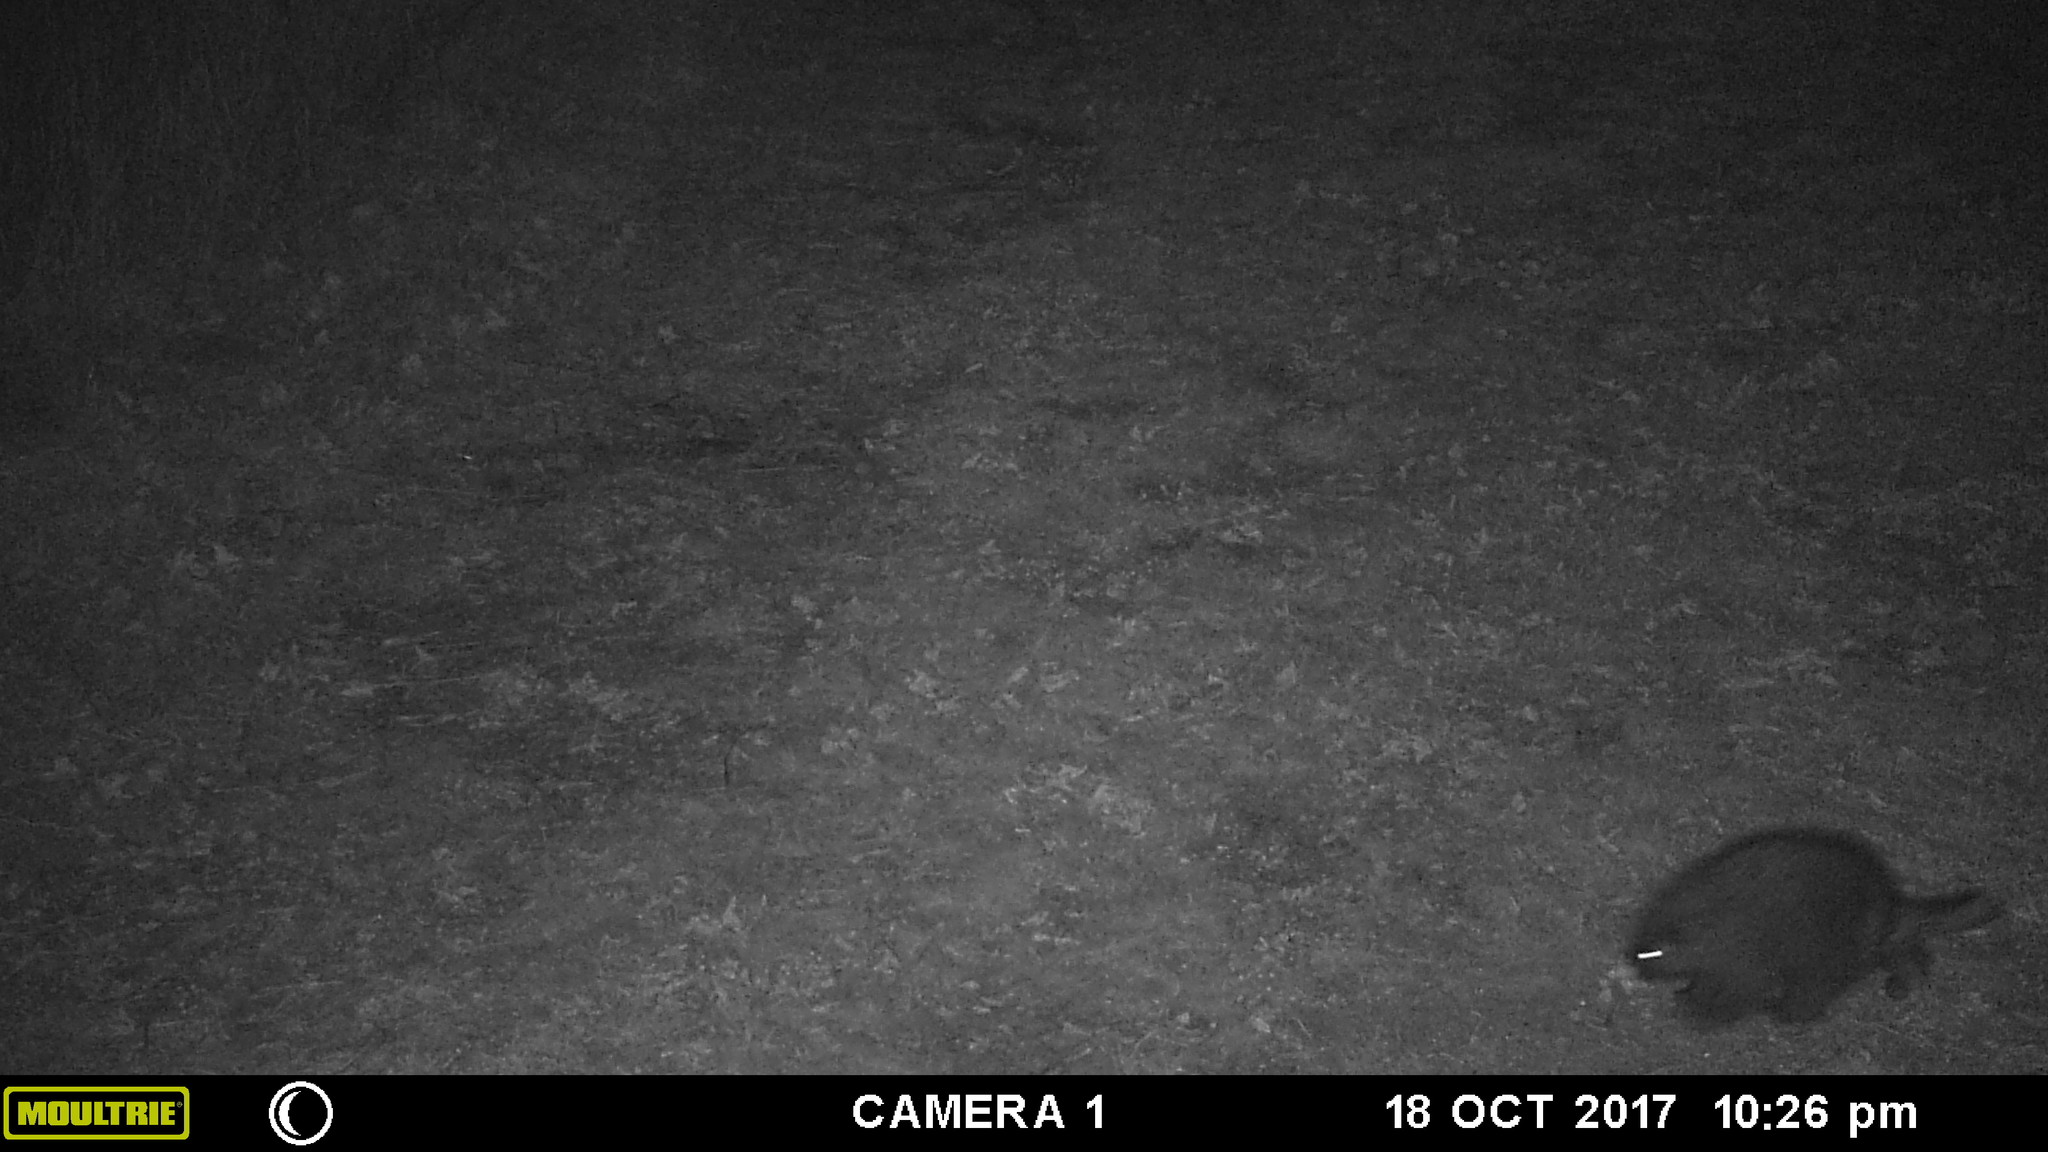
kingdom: Animalia
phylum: Chordata
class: Mammalia
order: Rodentia
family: Erethizontidae
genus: Erethizon
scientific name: Erethizon dorsatus
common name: North american porcupine
